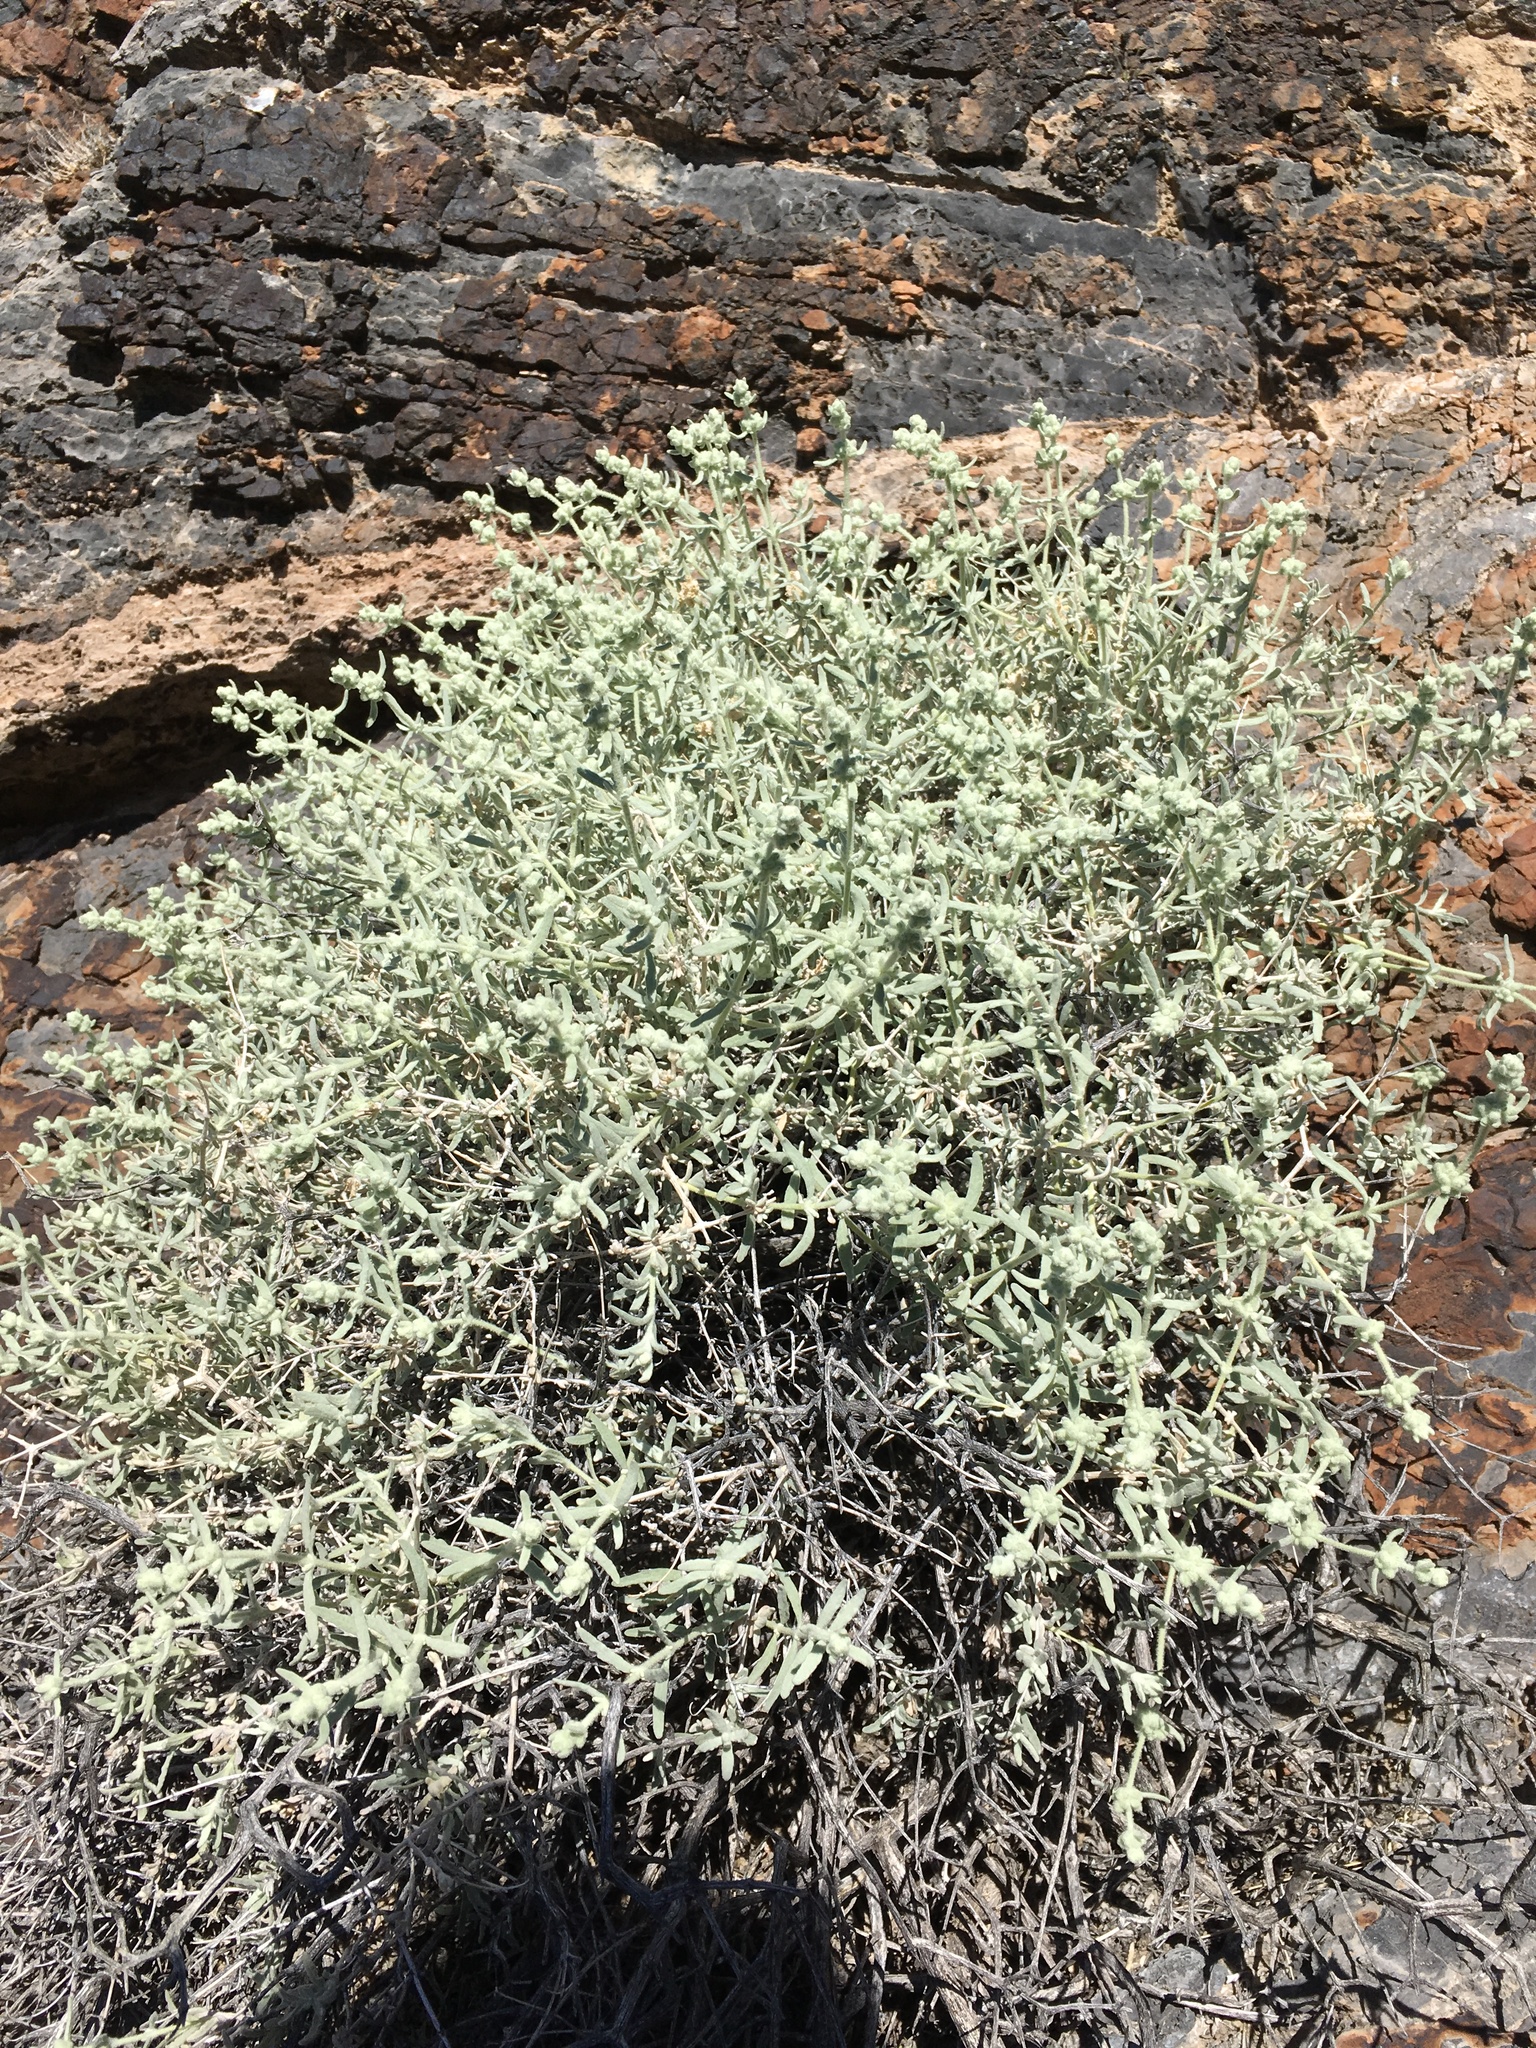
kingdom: Plantae
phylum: Tracheophyta
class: Magnoliopsida
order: Lamiales
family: Scrophulariaceae
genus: Buddleja
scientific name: Buddleja utahensis
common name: Utah butterfly-bush
